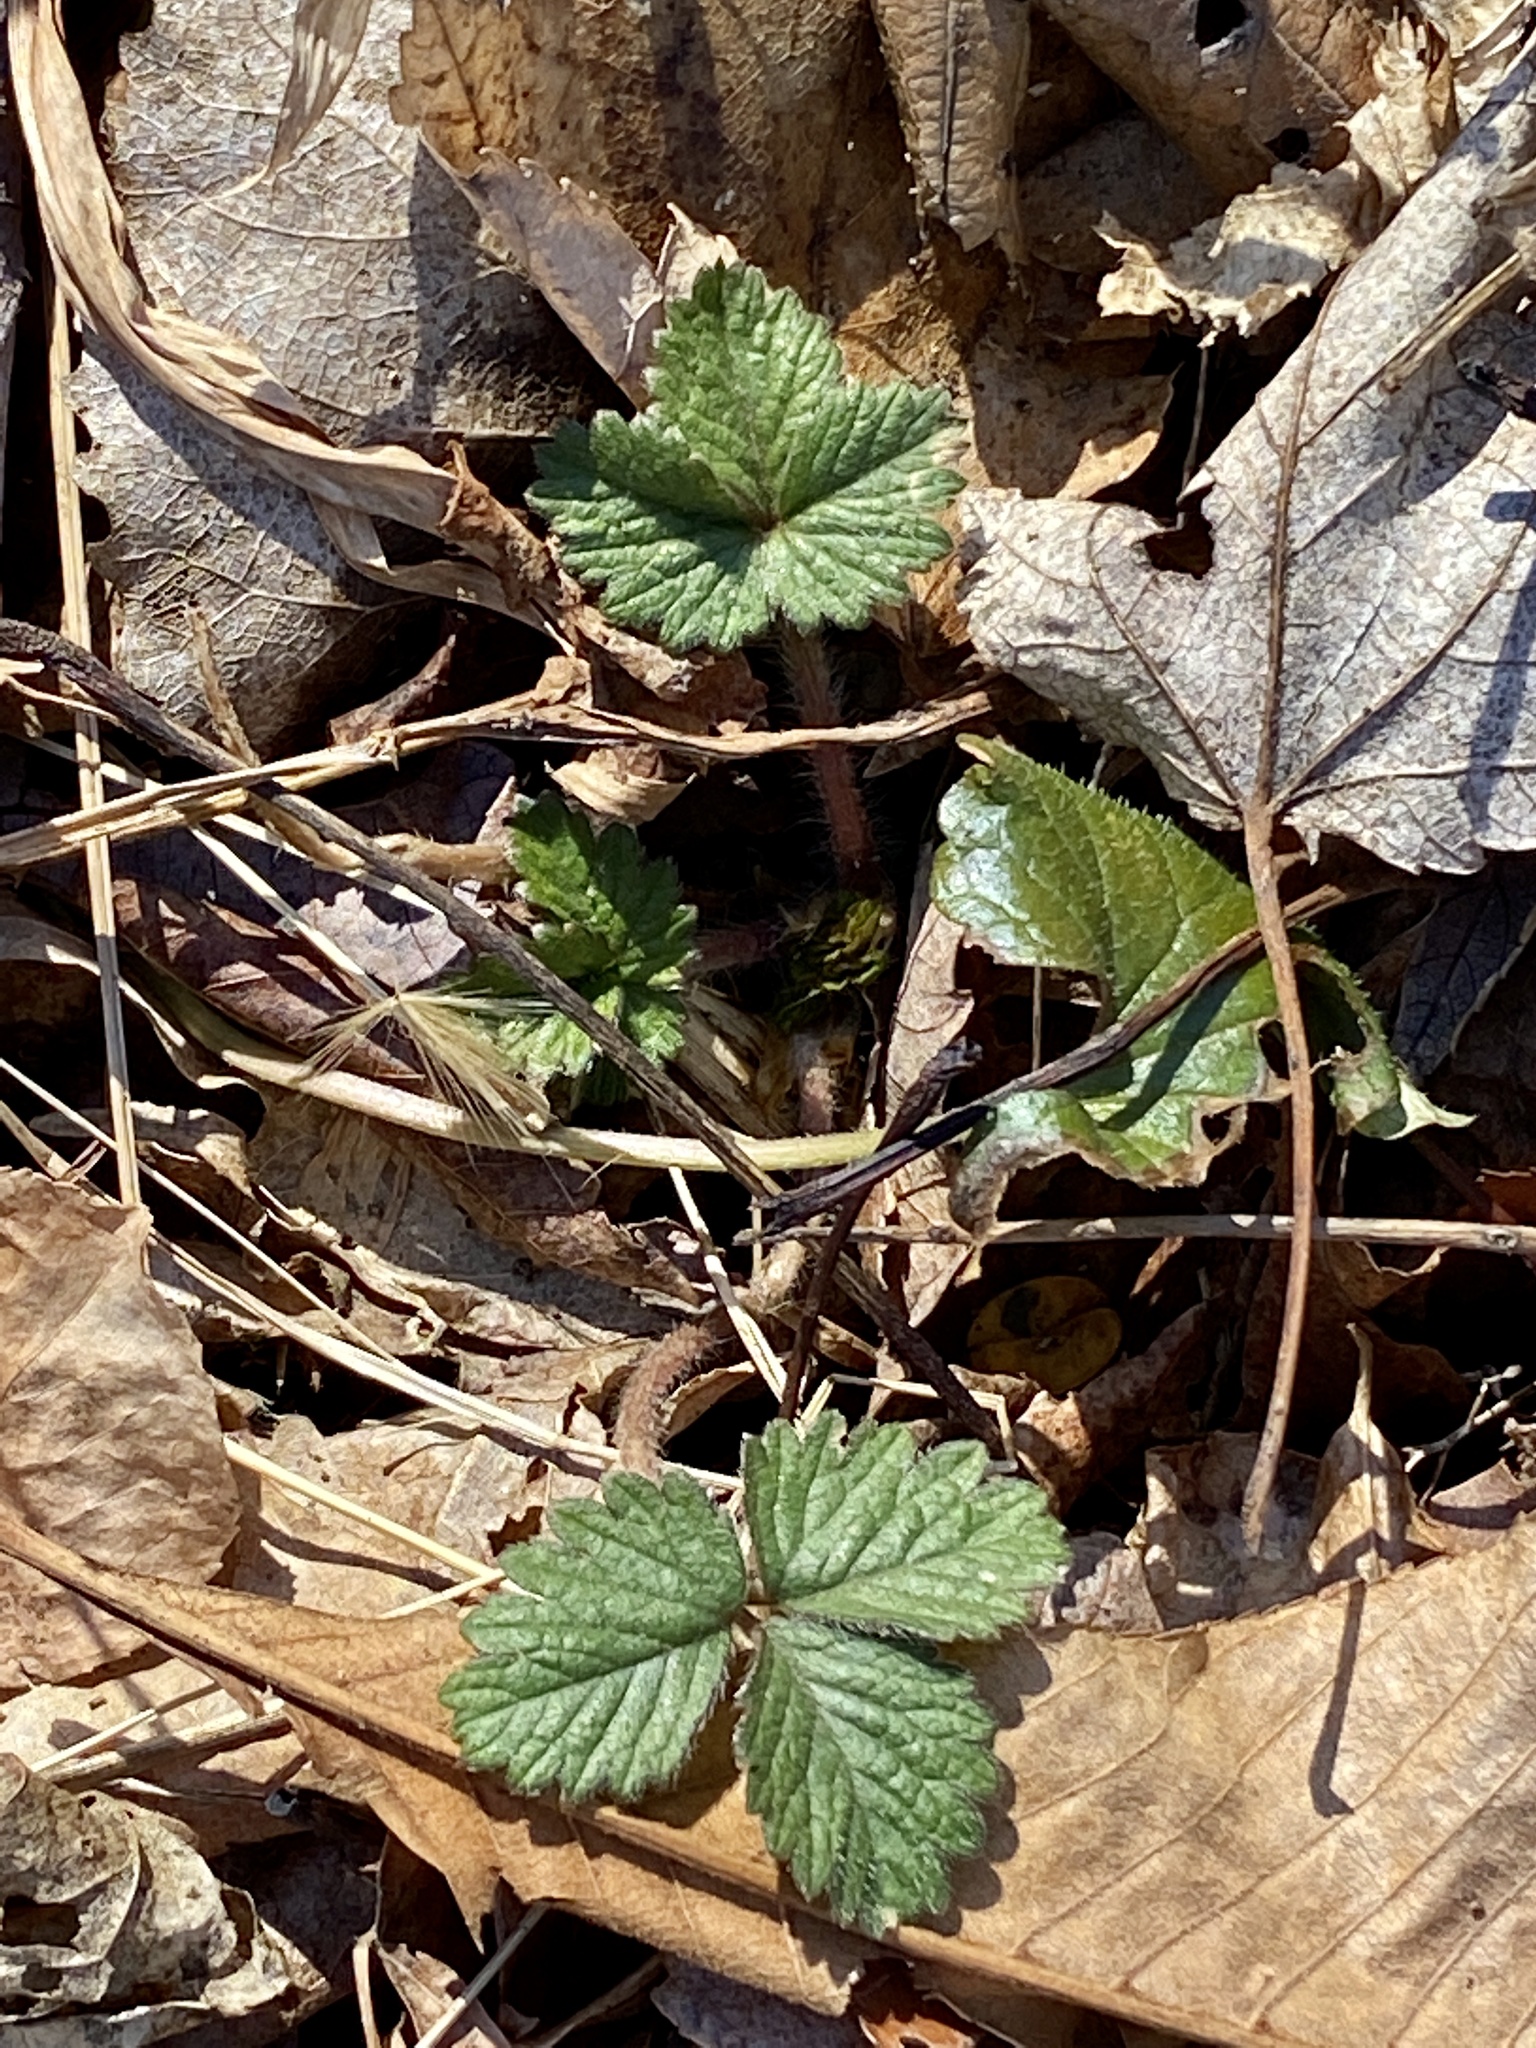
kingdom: Plantae
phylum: Tracheophyta
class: Magnoliopsida
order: Rosales
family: Rosaceae
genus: Potentilla
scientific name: Potentilla indica
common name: Yellow-flowered strawberry
